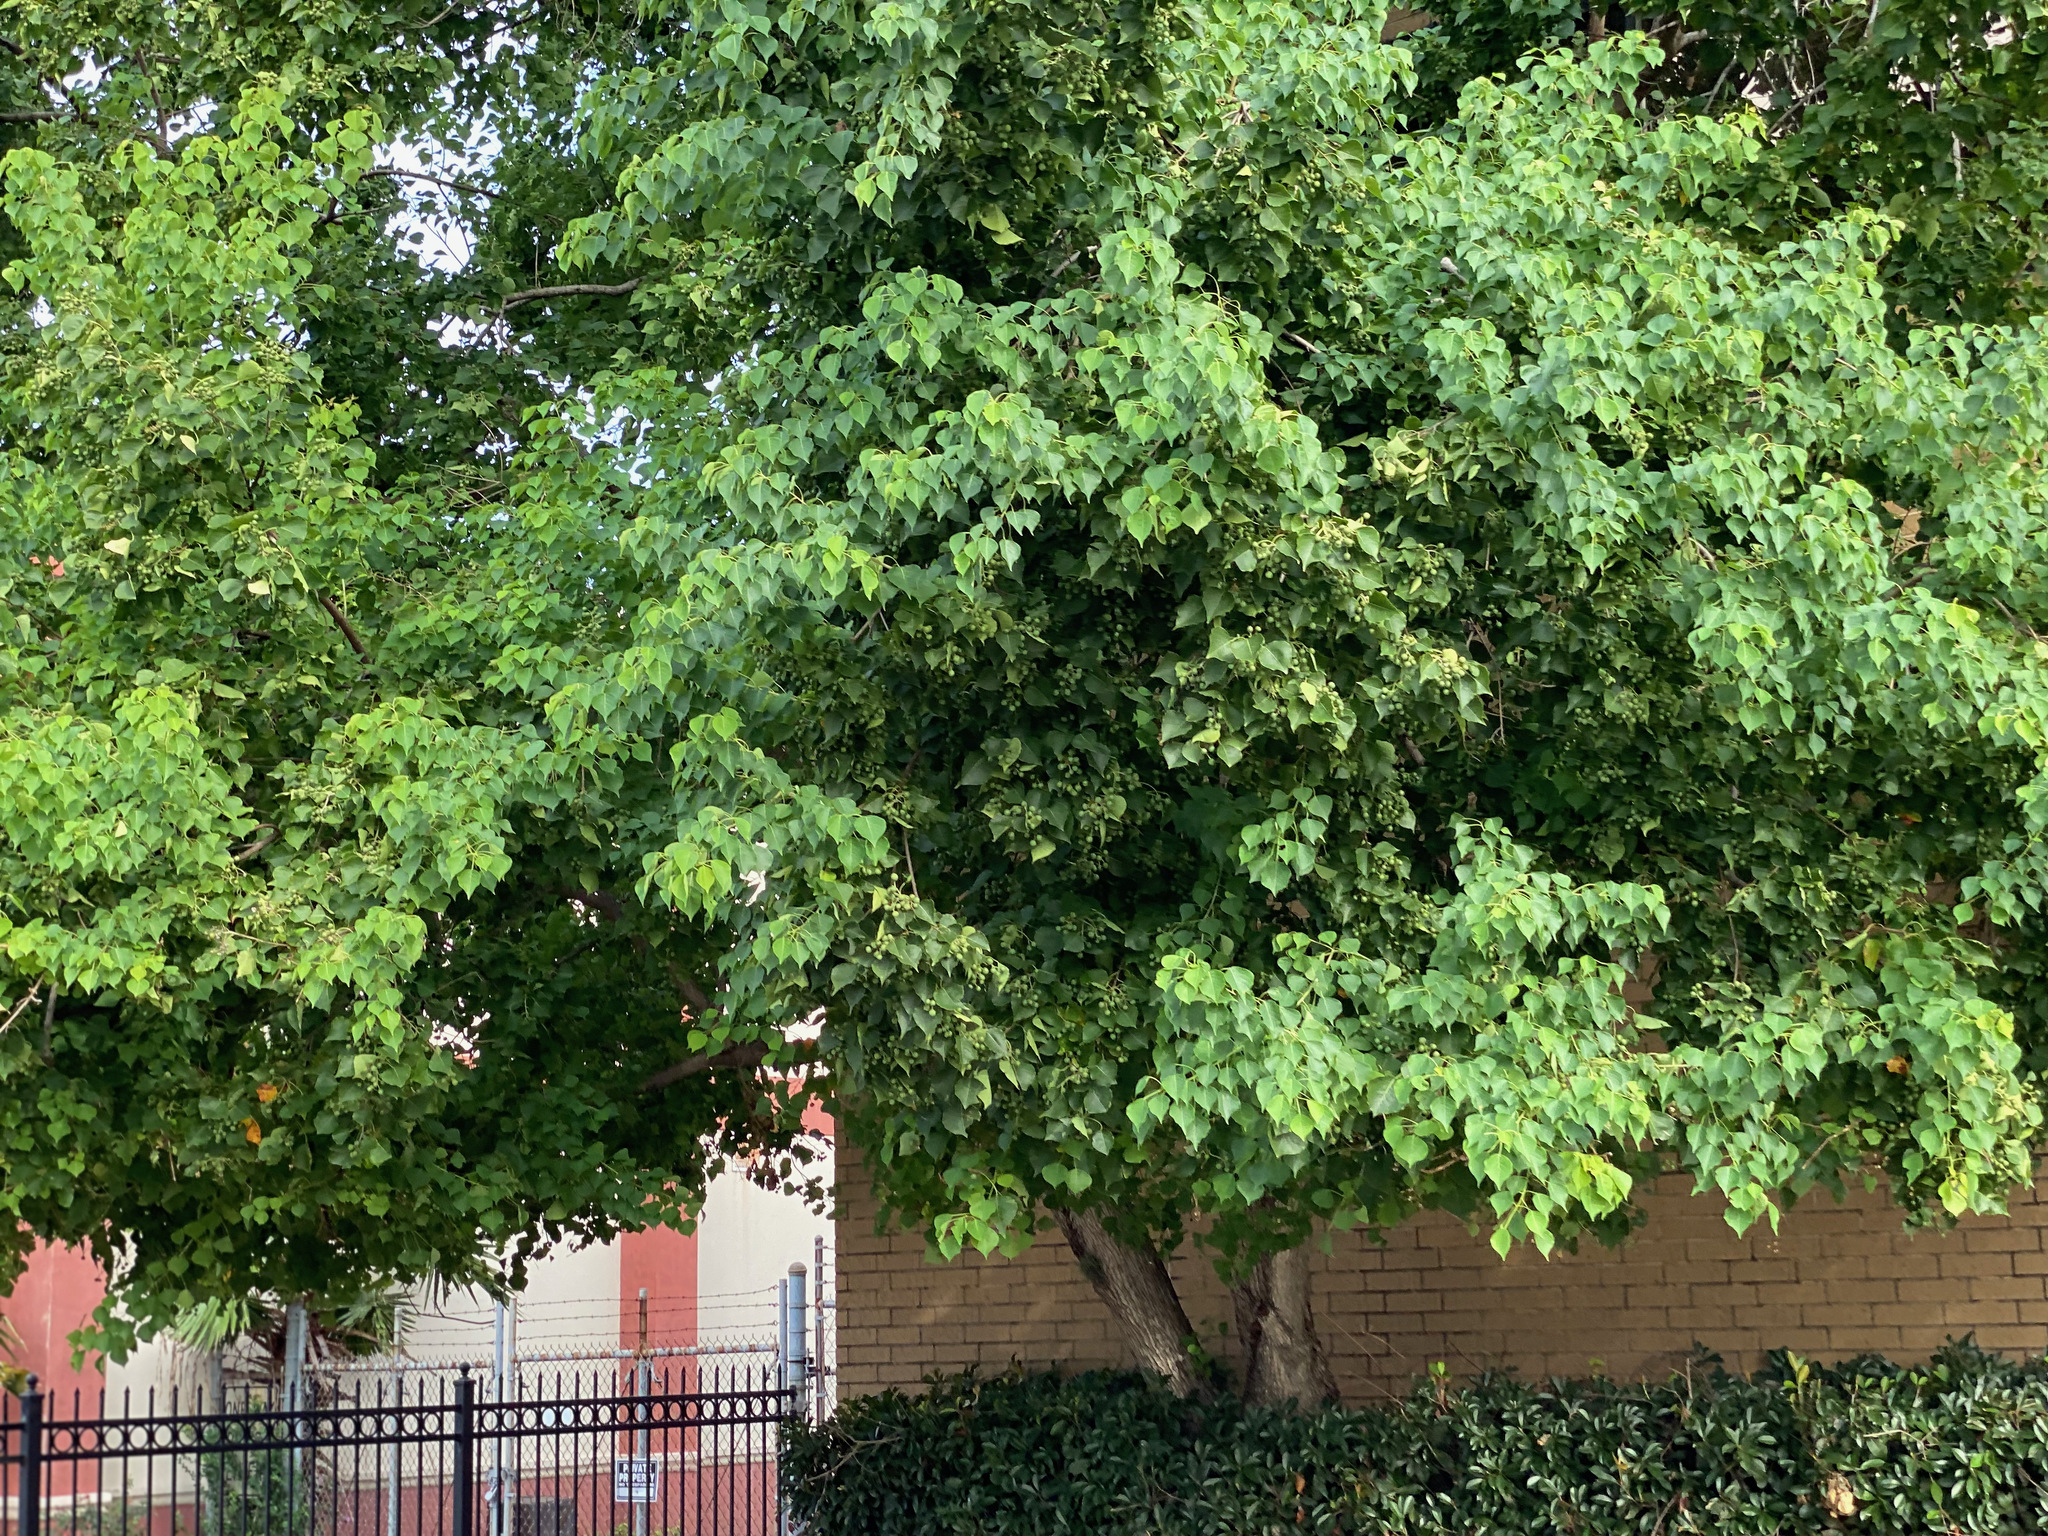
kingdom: Plantae
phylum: Tracheophyta
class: Magnoliopsida
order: Malpighiales
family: Euphorbiaceae
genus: Triadica
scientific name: Triadica sebifera
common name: Chinese tallow
